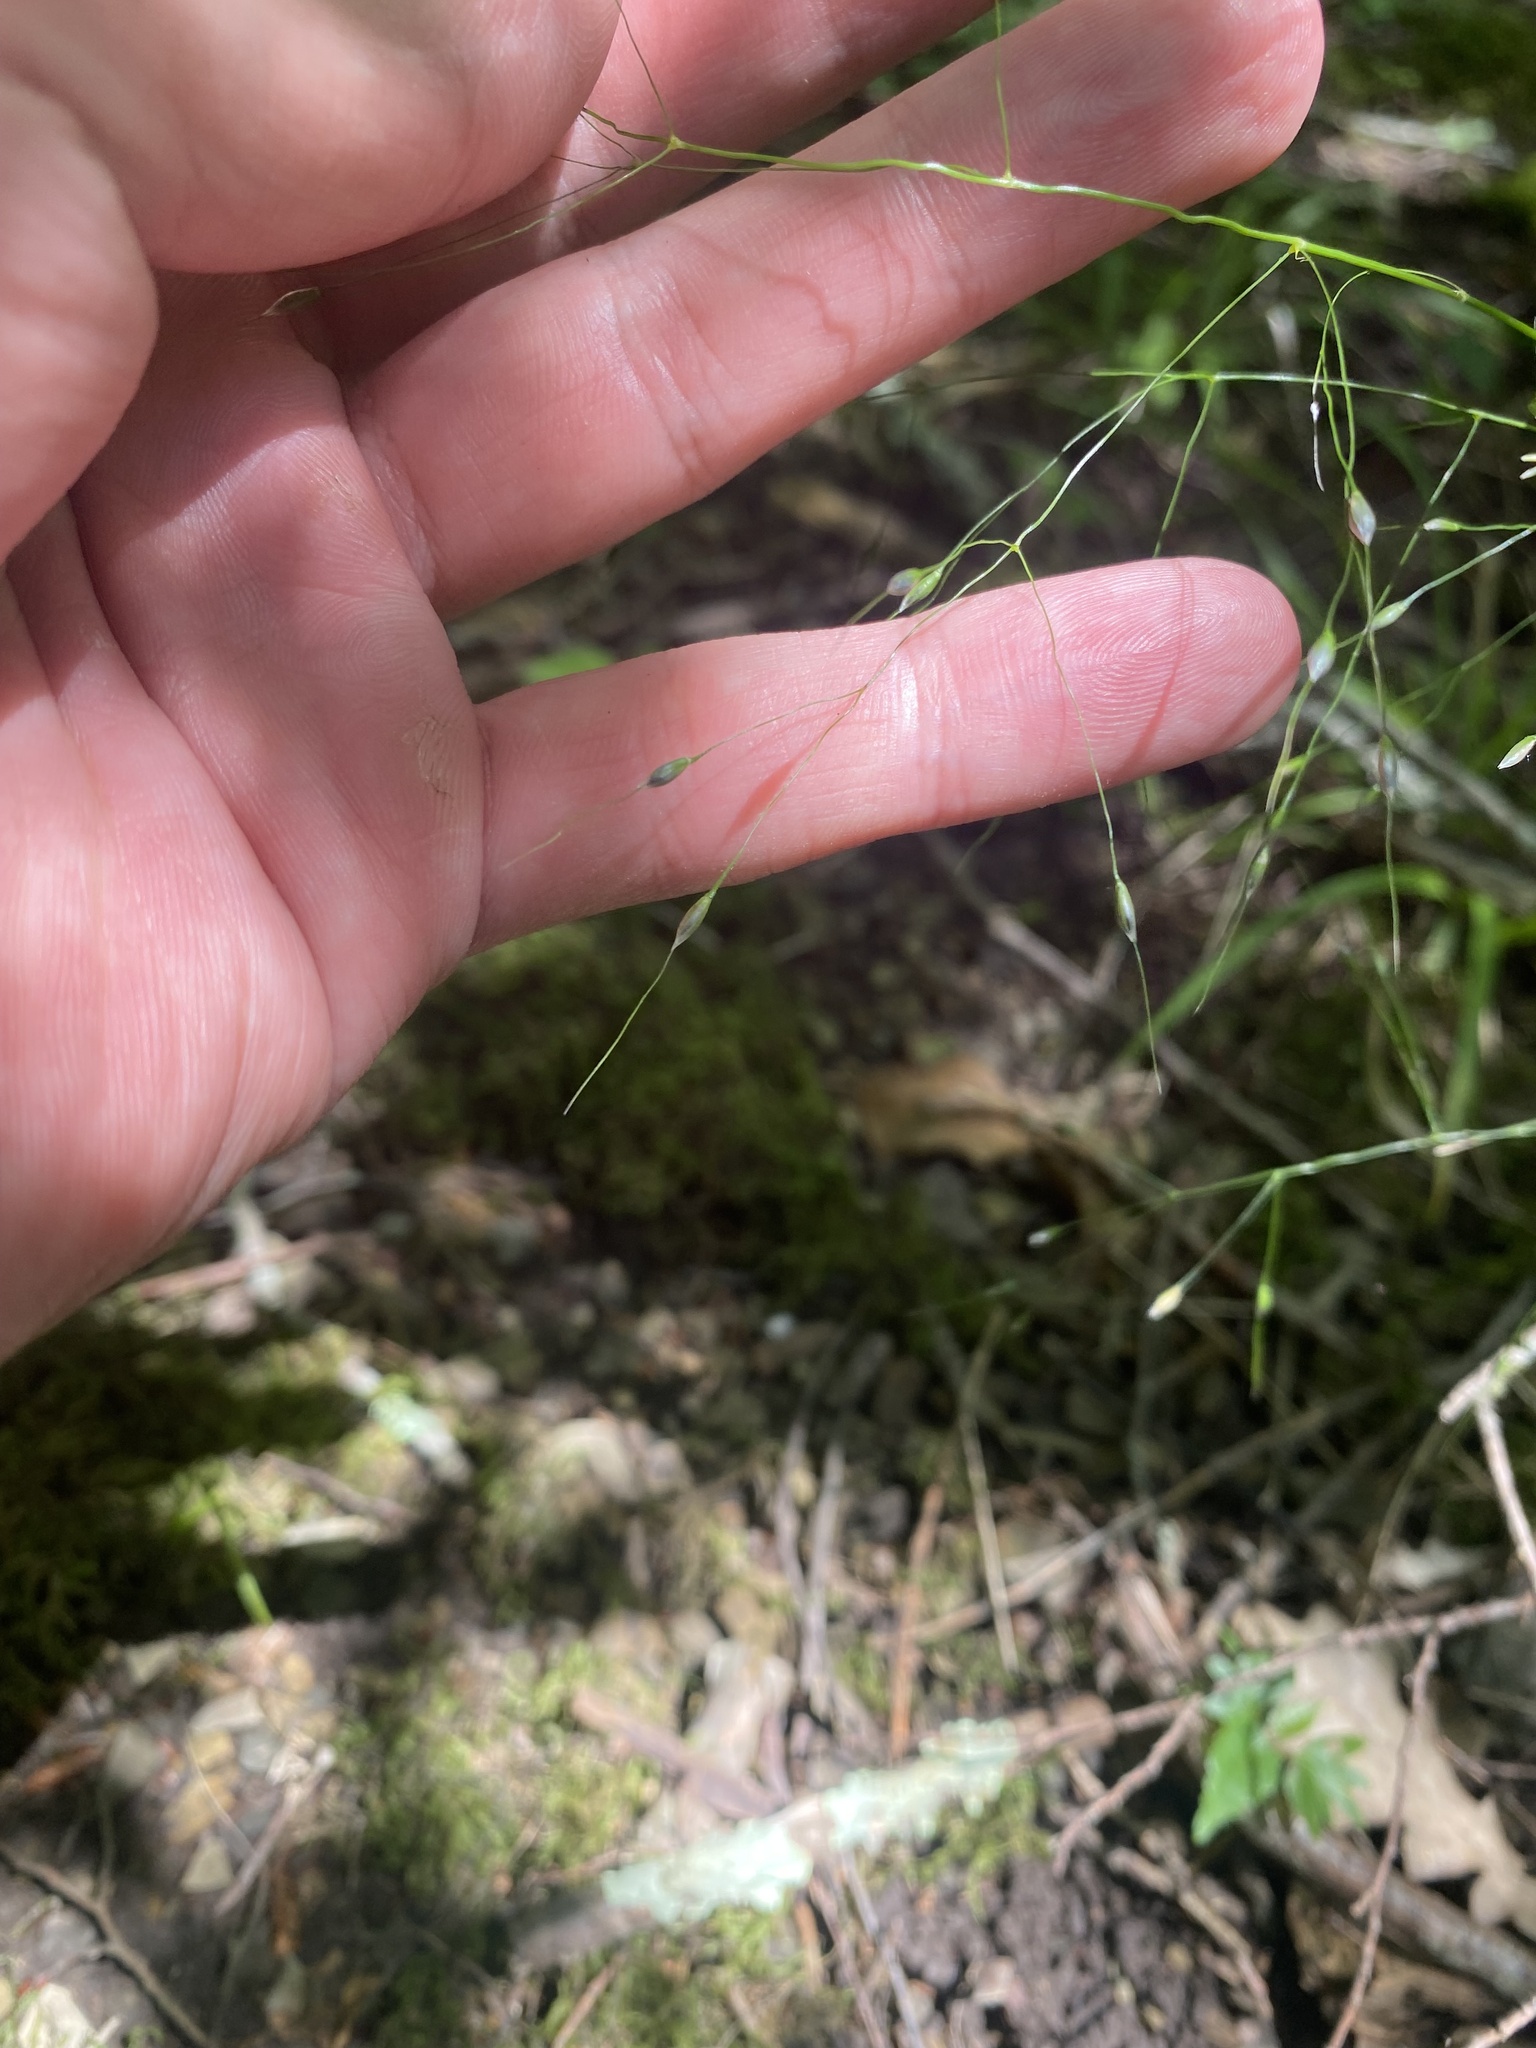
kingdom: Plantae
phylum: Tracheophyta
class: Liliopsida
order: Poales
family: Poaceae
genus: Achnatherum
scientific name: Achnatherum virescens
